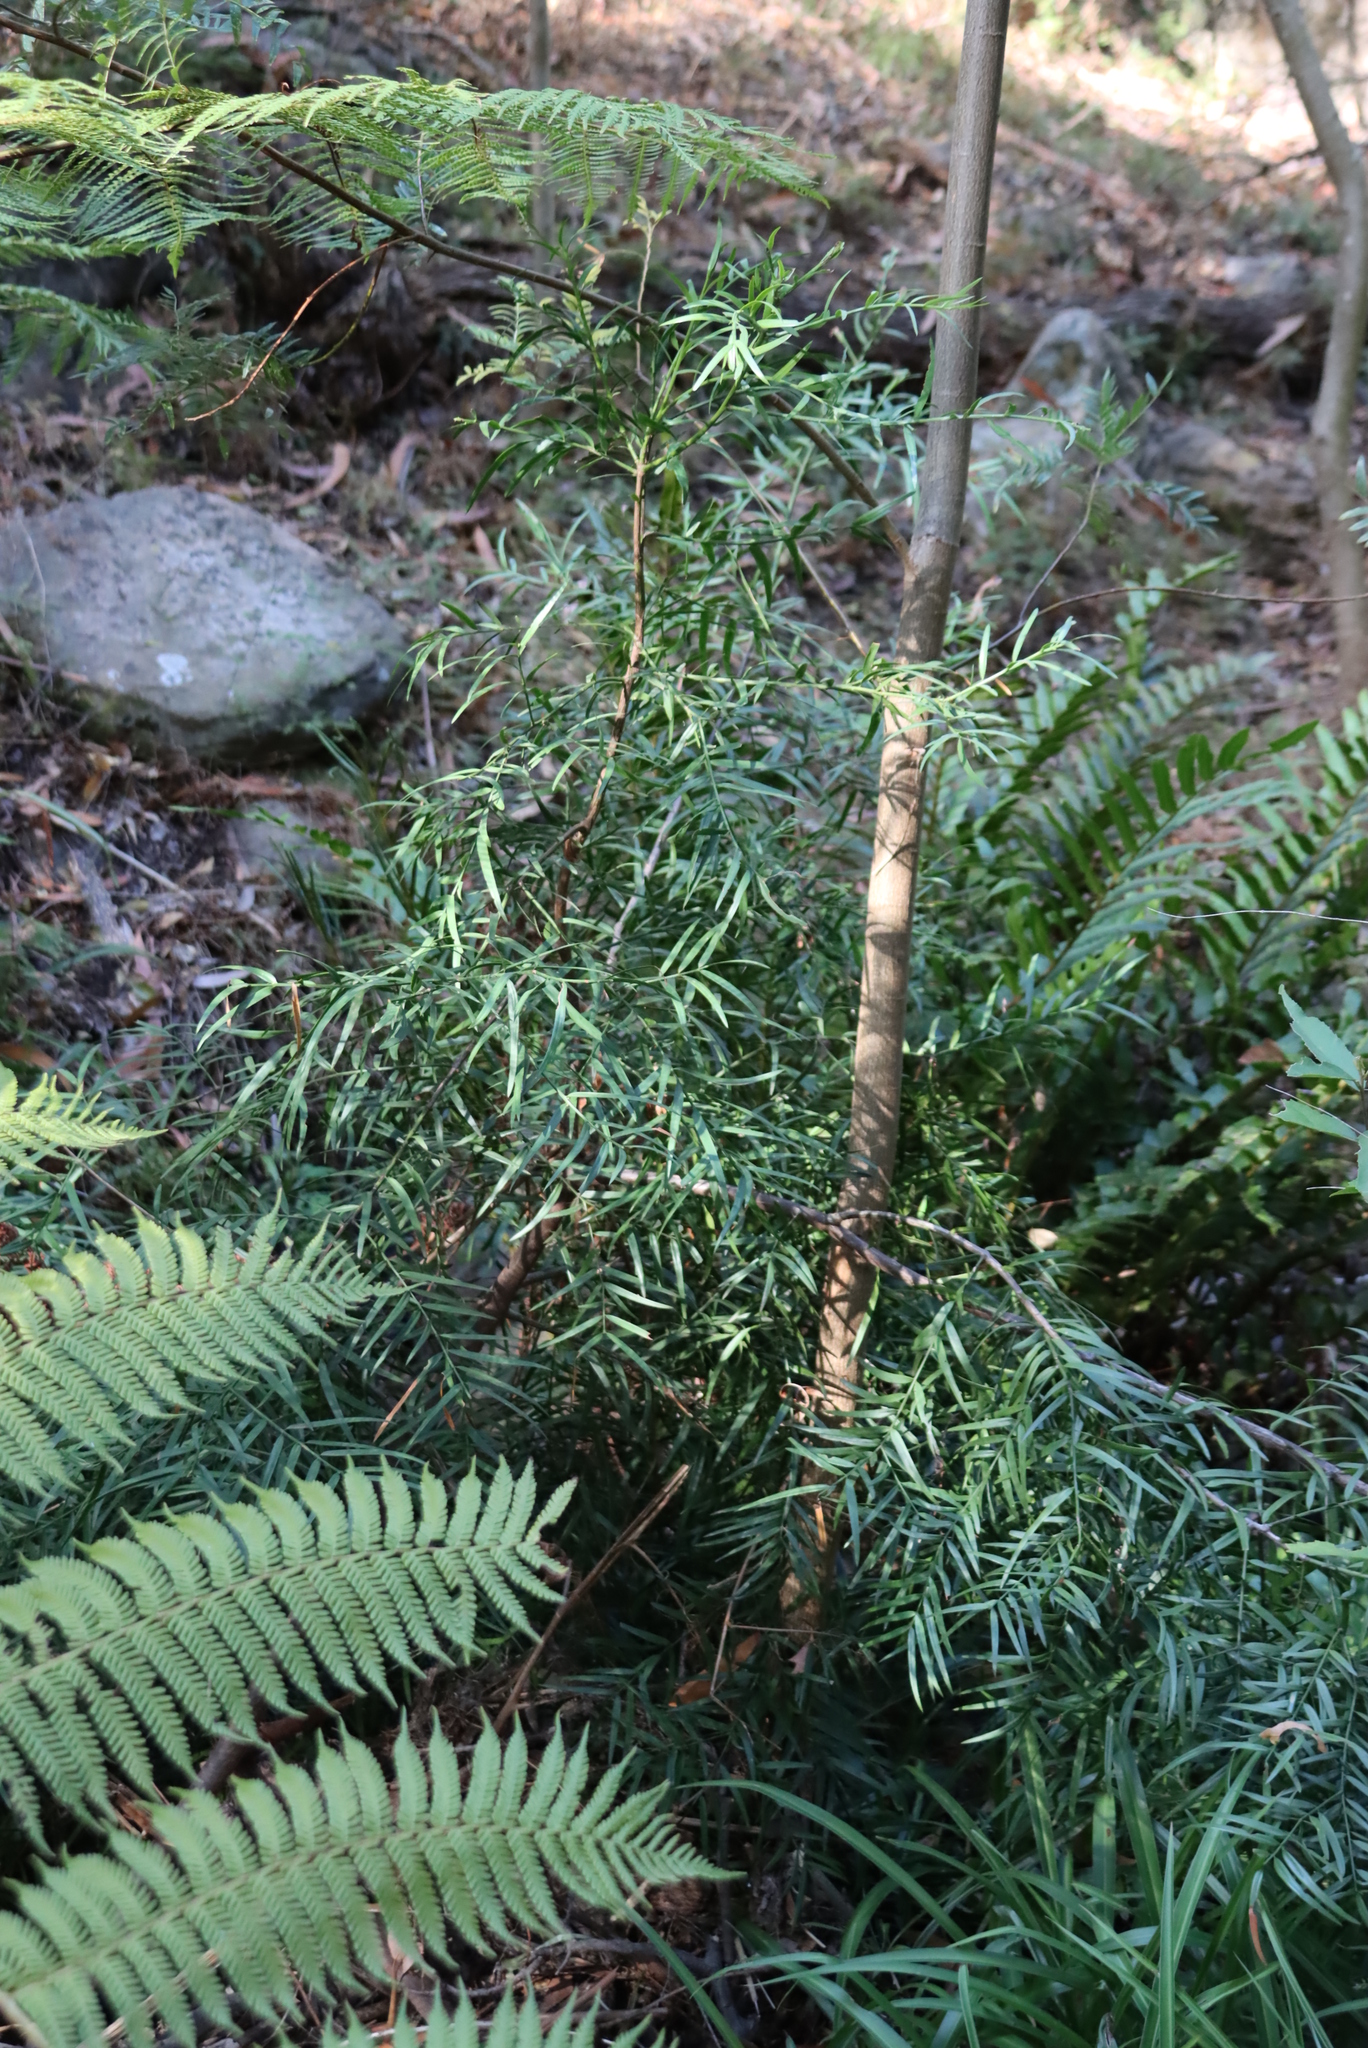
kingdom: Plantae
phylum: Tracheophyta
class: Pinopsida
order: Pinales
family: Podocarpaceae
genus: Afrocarpus
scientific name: Afrocarpus falcatus
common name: Bastard yellowwood
